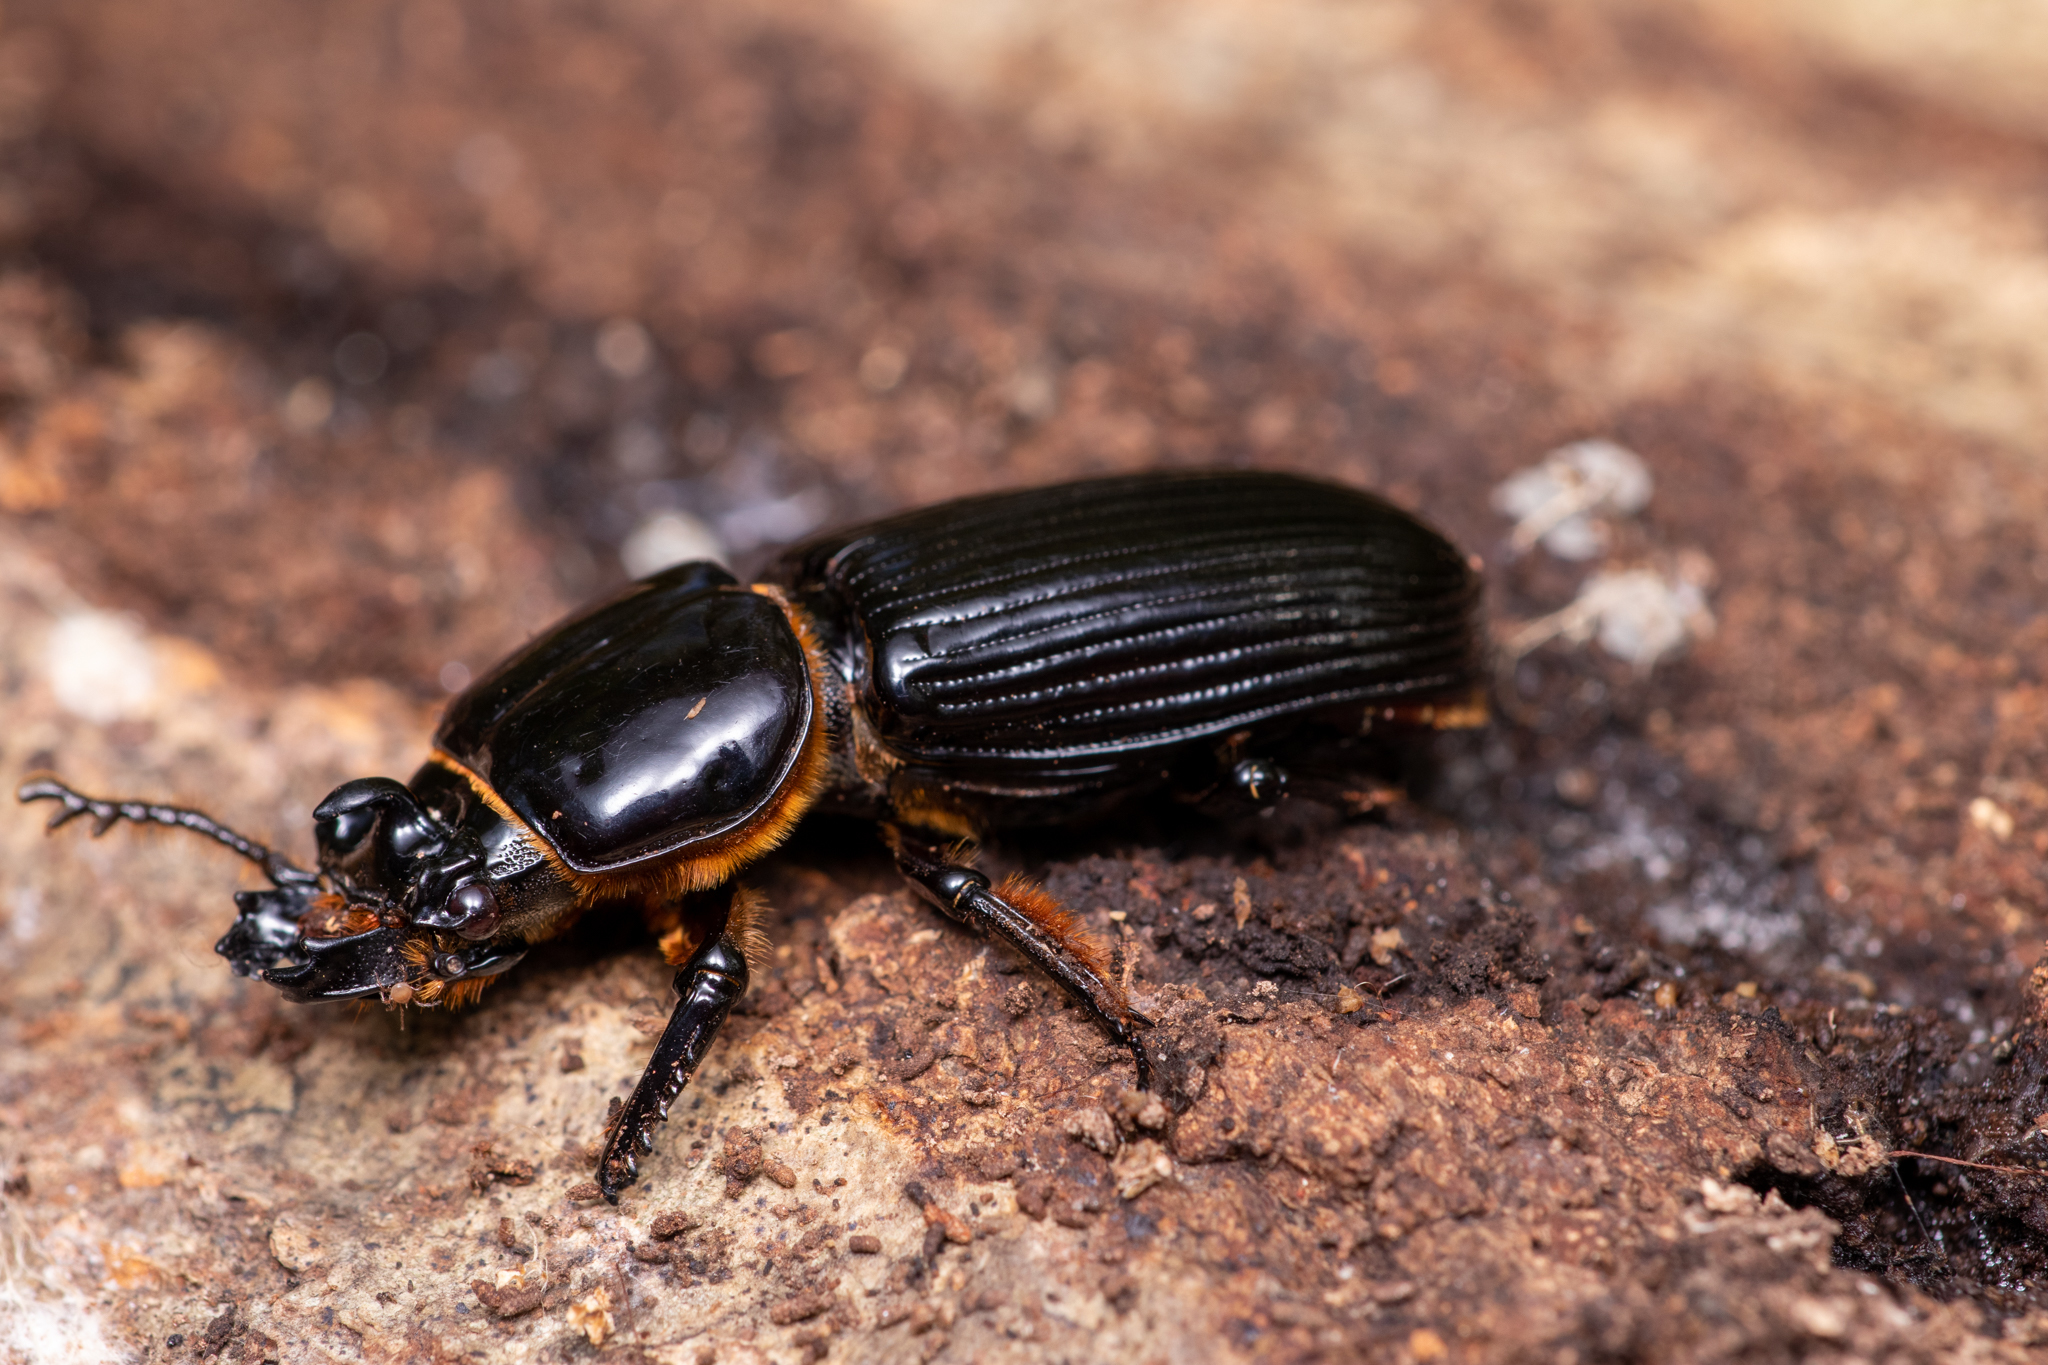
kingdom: Animalia
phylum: Arthropoda
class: Insecta
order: Coleoptera
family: Passalidae
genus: Odontotaenius
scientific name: Odontotaenius disjunctus
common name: Patent leather beetle
